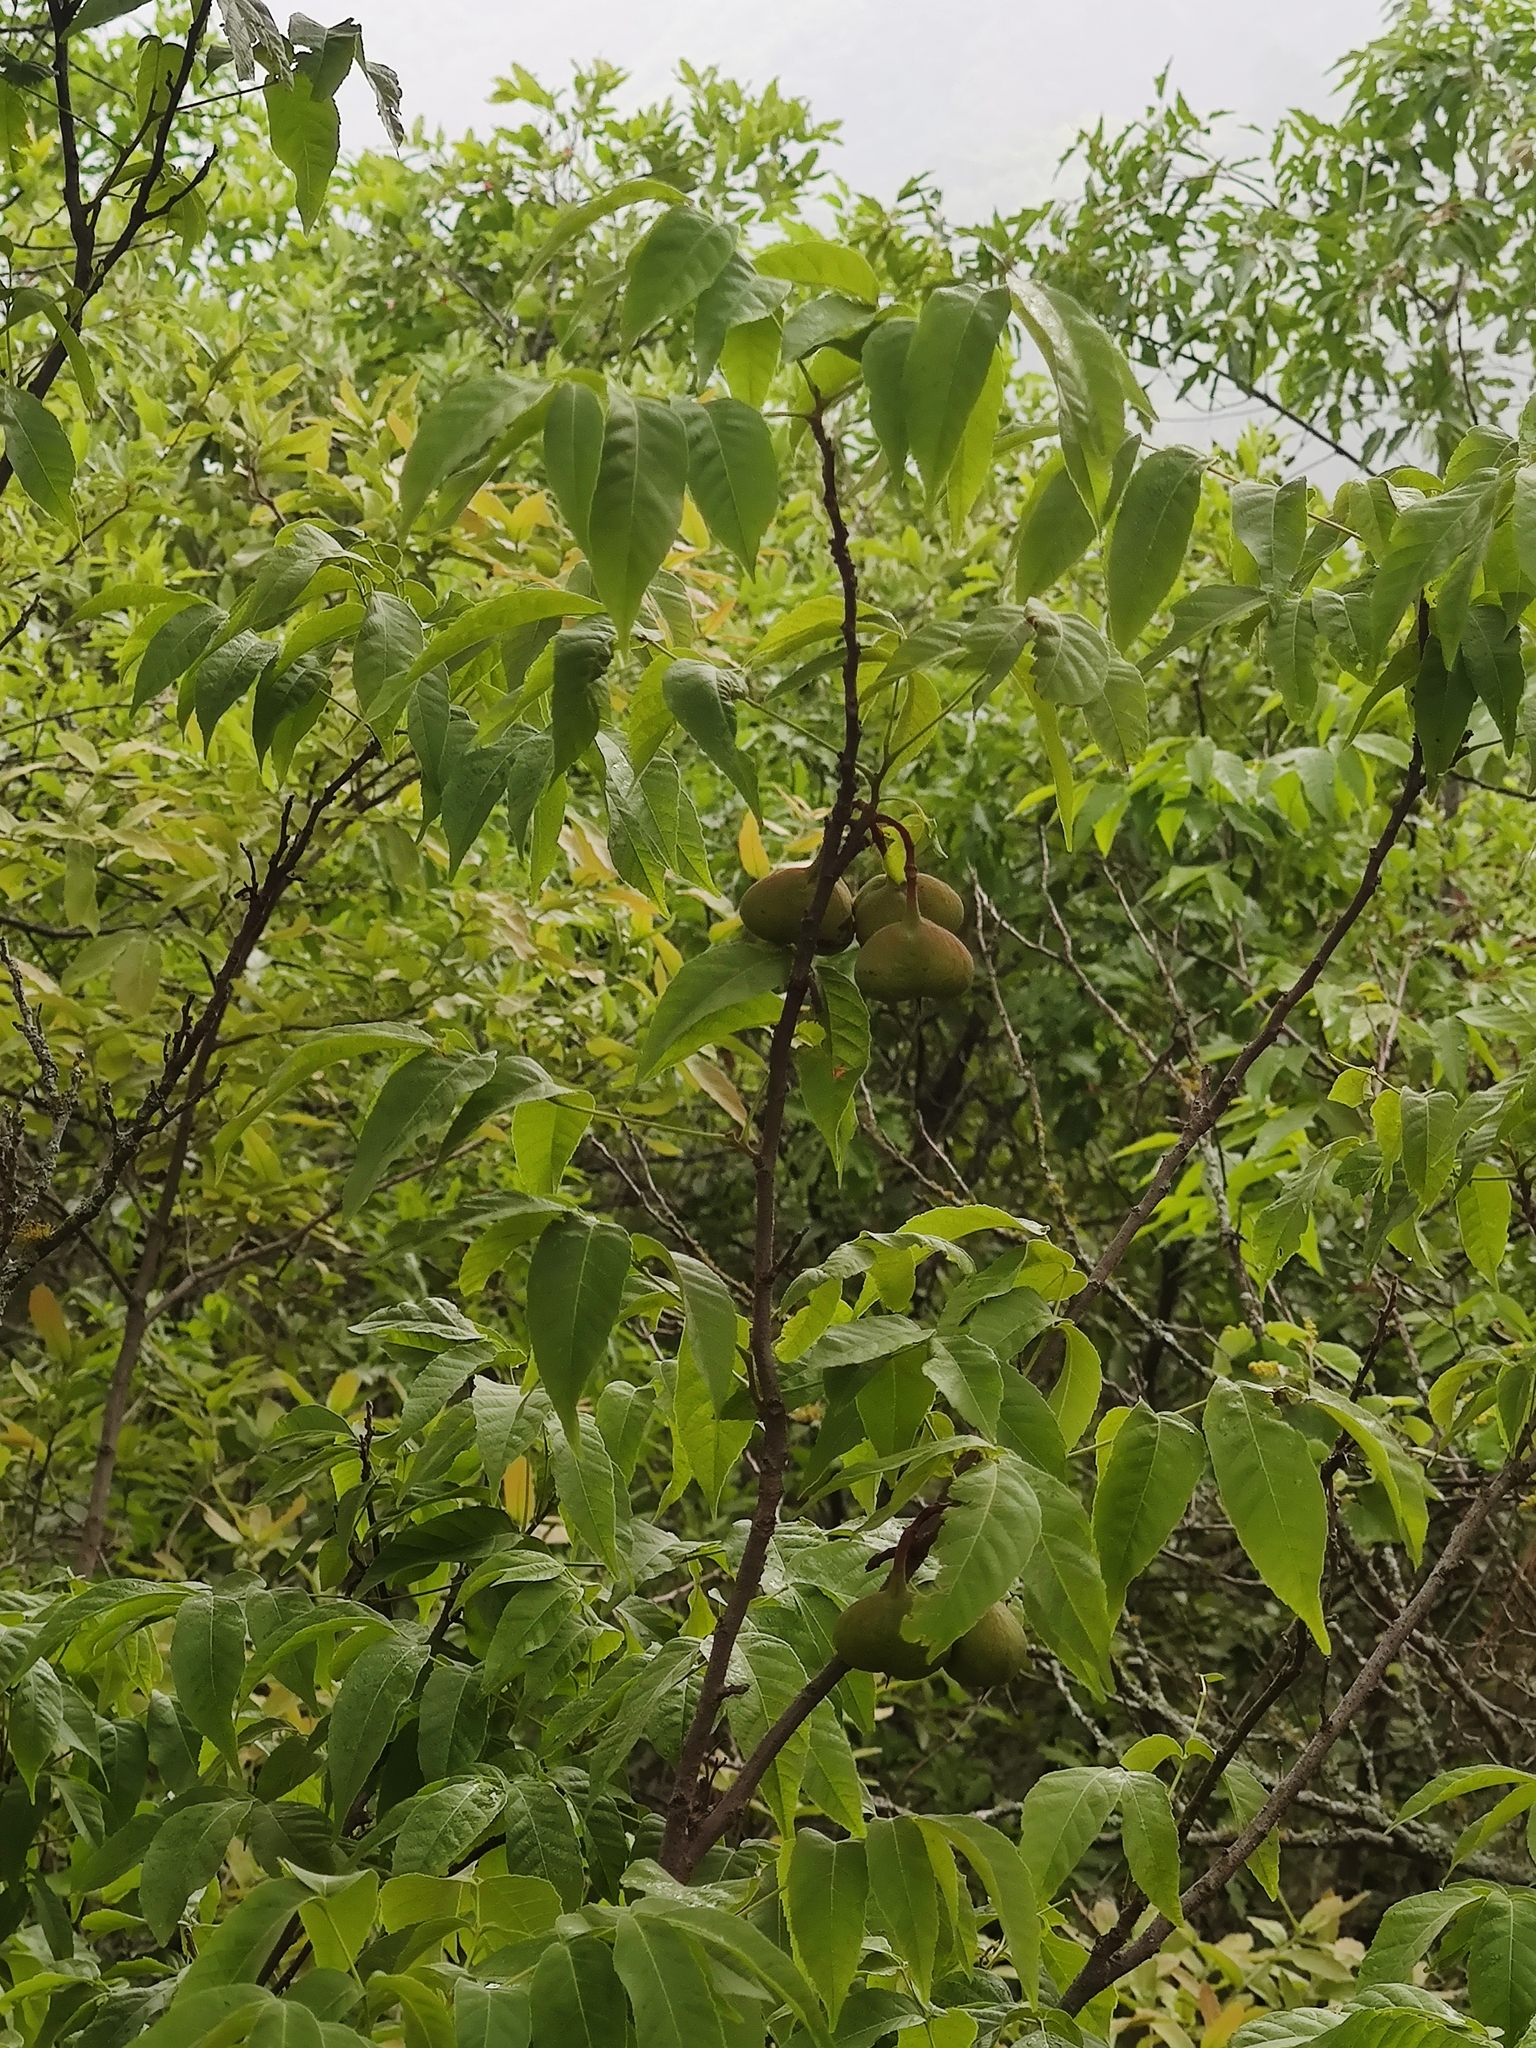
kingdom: Plantae
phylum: Tracheophyta
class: Magnoliopsida
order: Sapindales
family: Sapindaceae
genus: Ungnadia
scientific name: Ungnadia speciosa
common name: Texas-buckeye
